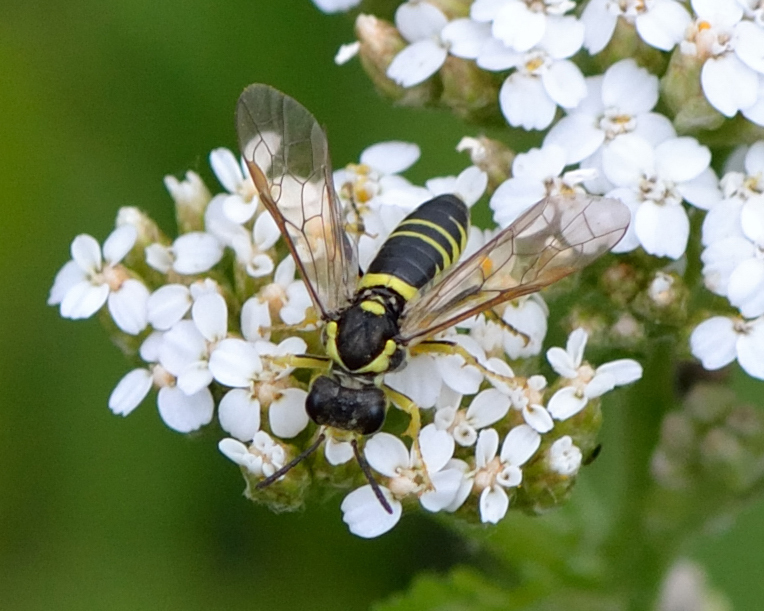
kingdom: Animalia
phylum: Arthropoda
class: Insecta
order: Hymenoptera
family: Tenthredinidae
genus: Tenthredo
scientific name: Tenthredo notha
